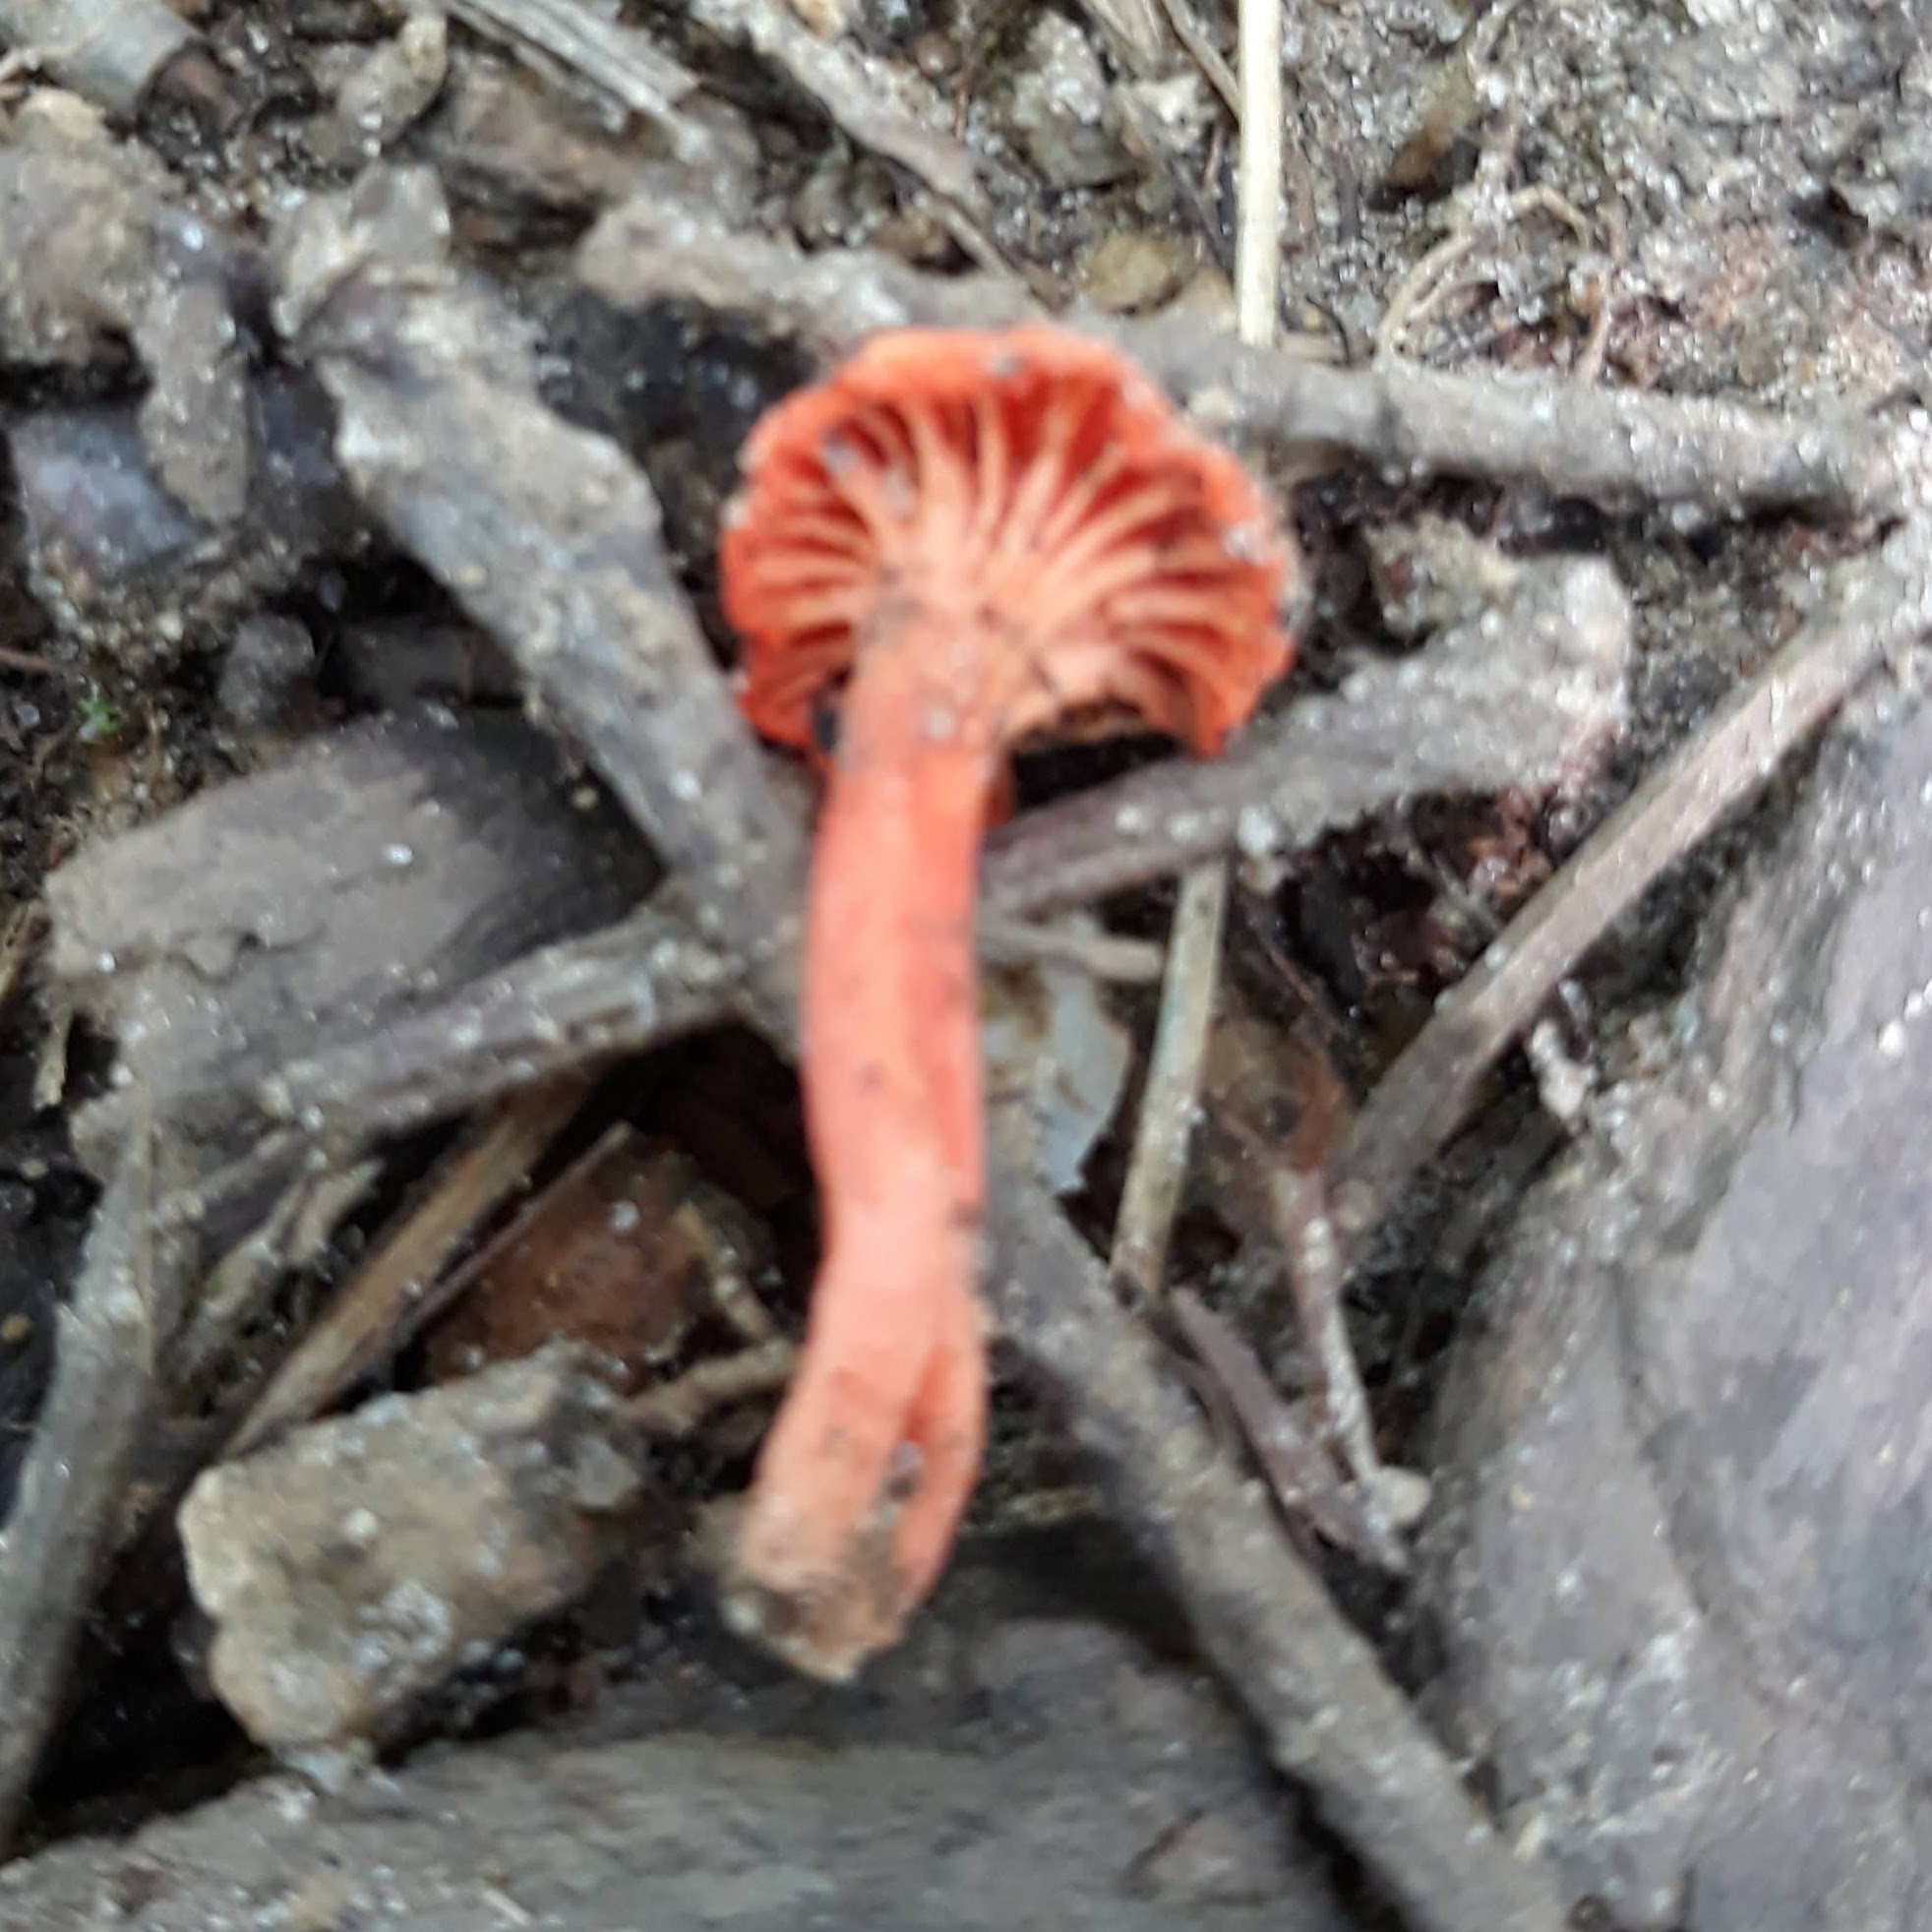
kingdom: Fungi
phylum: Basidiomycota
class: Agaricomycetes
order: Cantharellales
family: Hydnaceae
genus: Cantharellus
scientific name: Cantharellus cinnabarinus
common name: Cinnabar chanterelle
